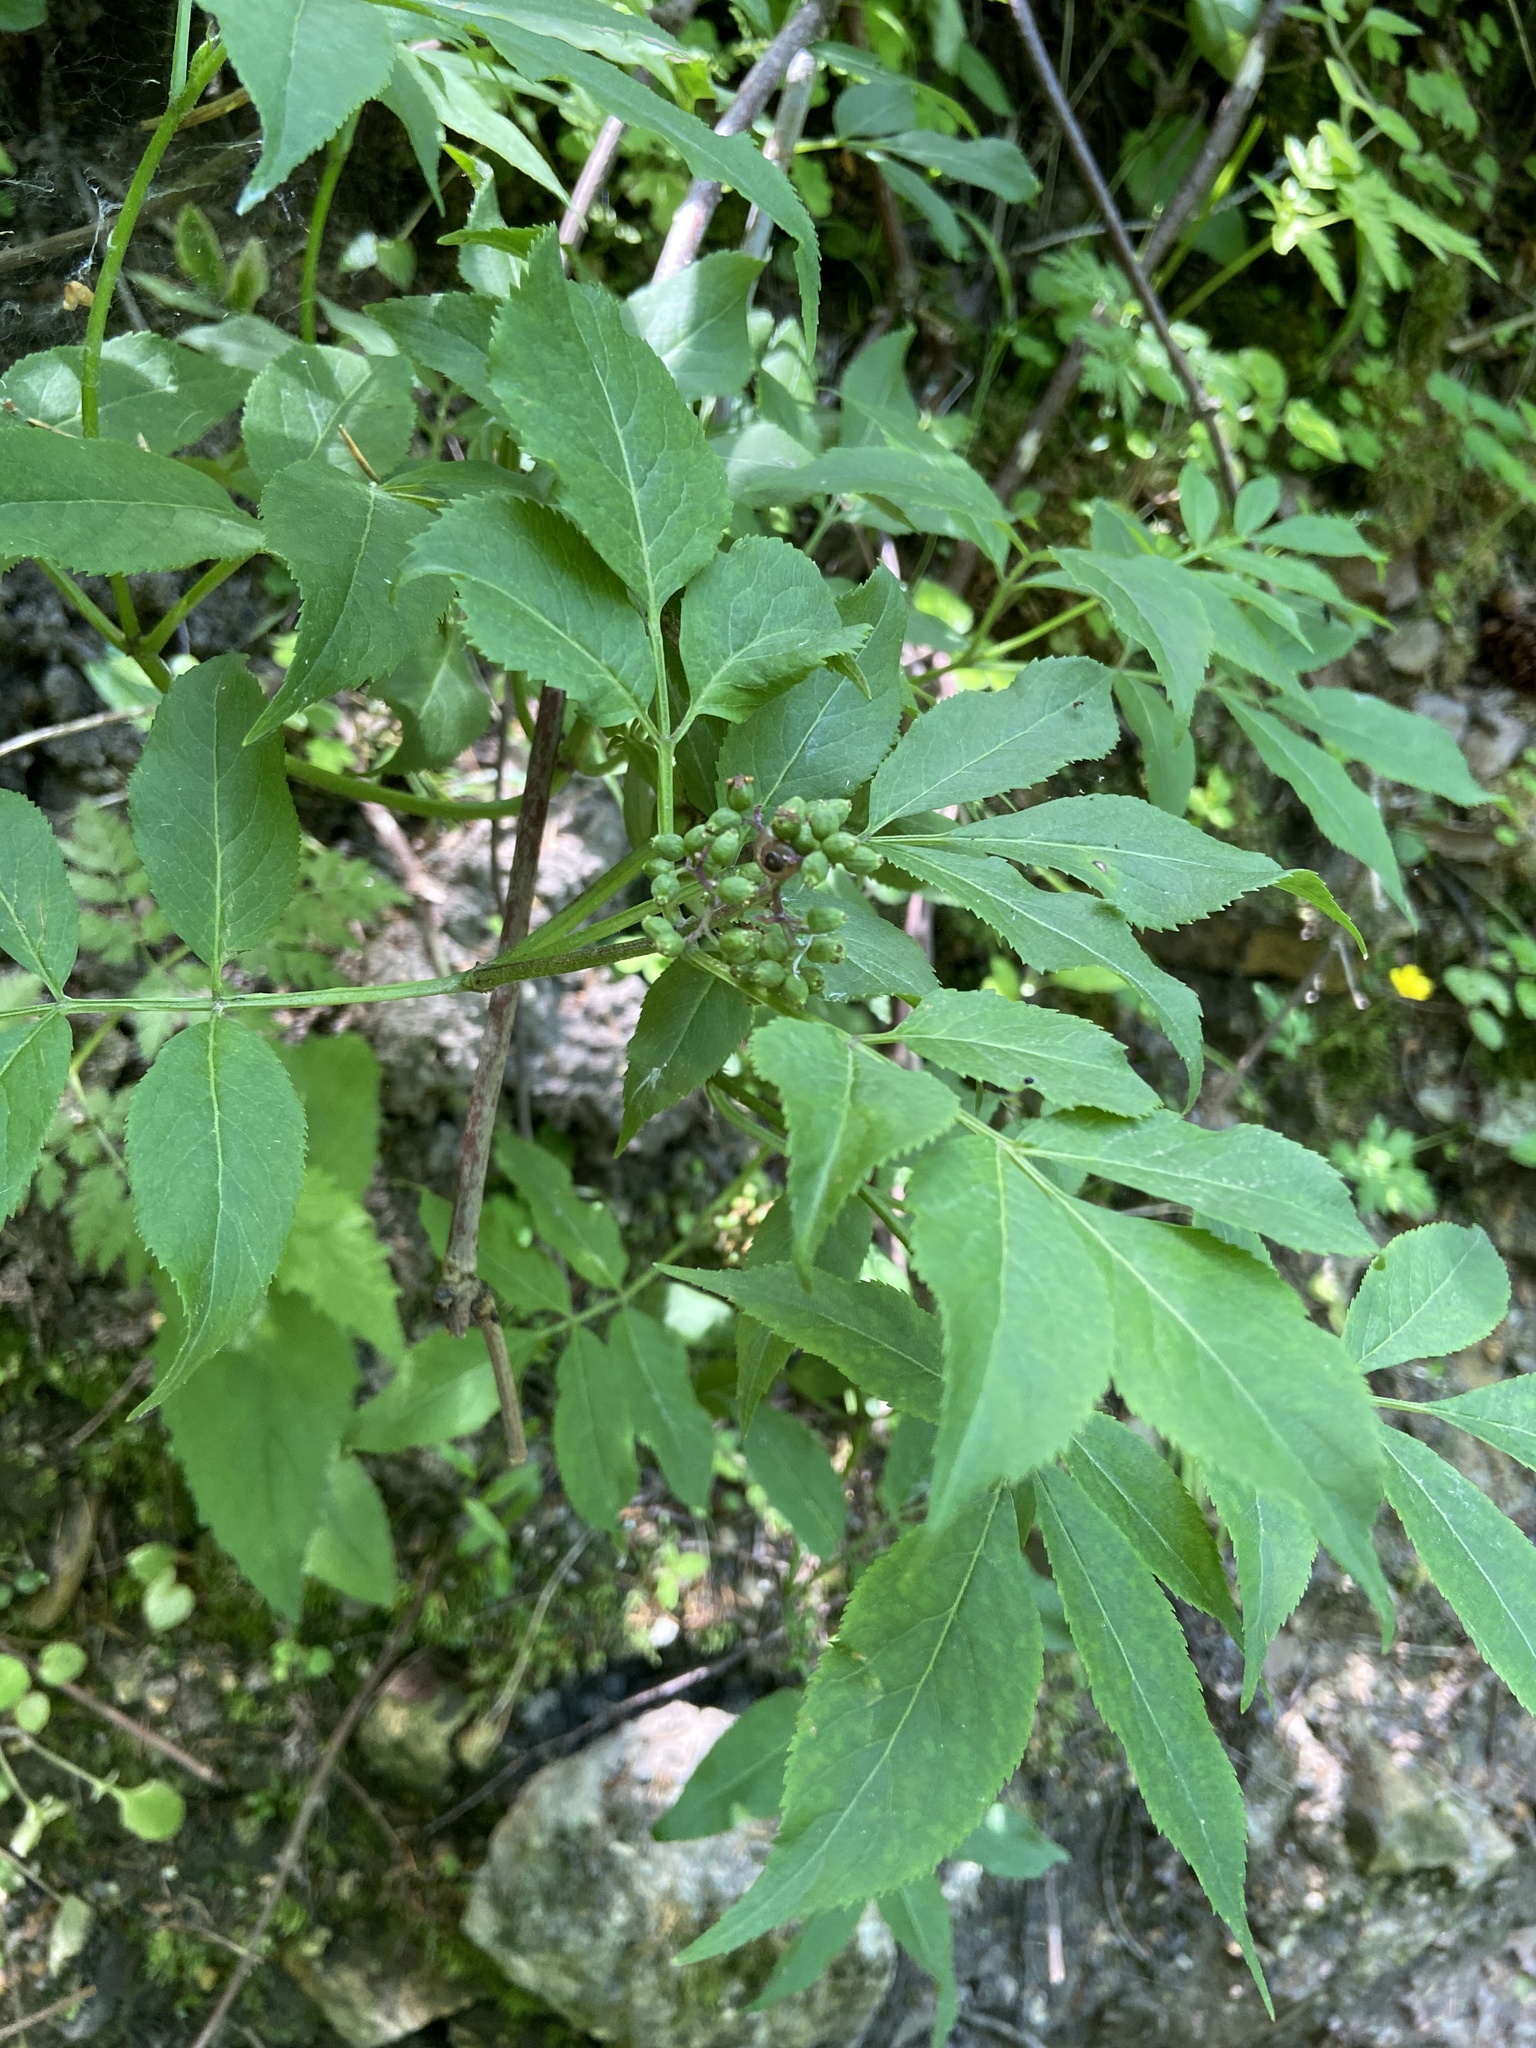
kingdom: Plantae
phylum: Tracheophyta
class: Magnoliopsida
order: Dipsacales
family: Viburnaceae
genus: Sambucus
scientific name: Sambucus racemosa
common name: Red-berried elder
